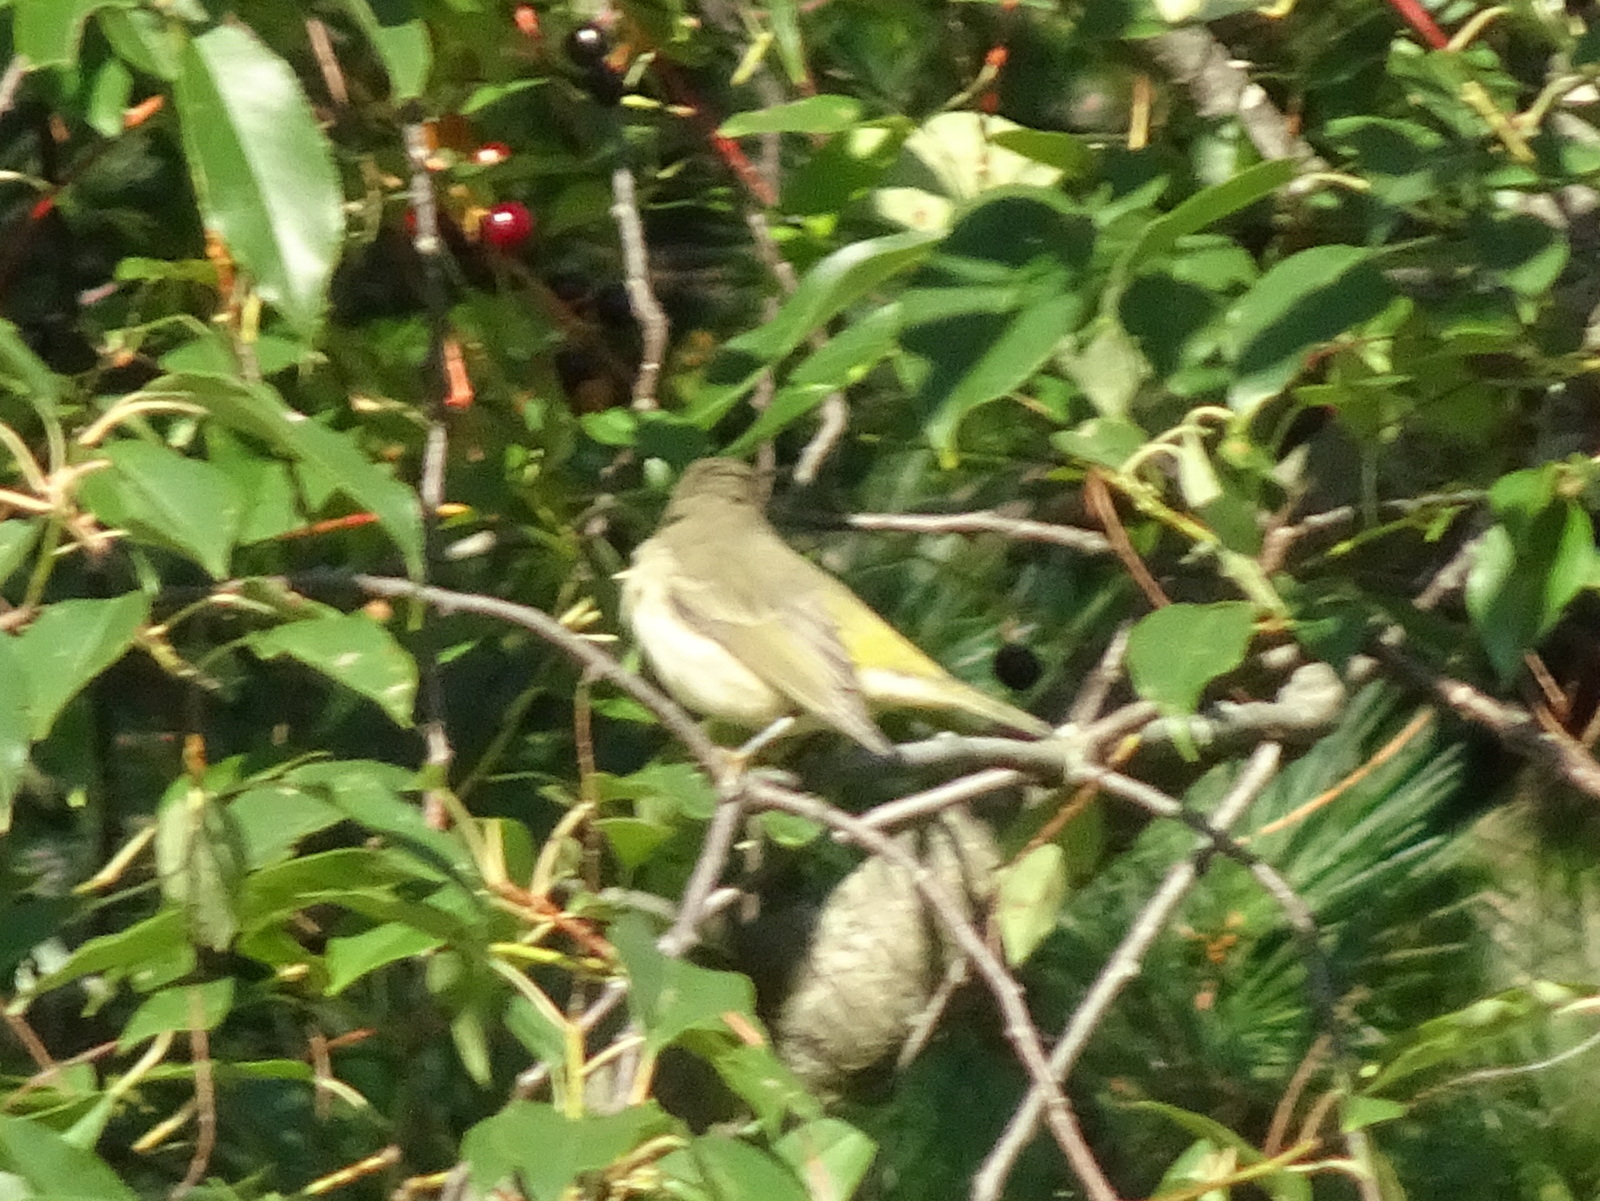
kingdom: Animalia
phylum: Chordata
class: Aves
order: Passeriformes
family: Parulidae
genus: Leiothlypis
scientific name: Leiothlypis peregrina
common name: Tennessee warbler
